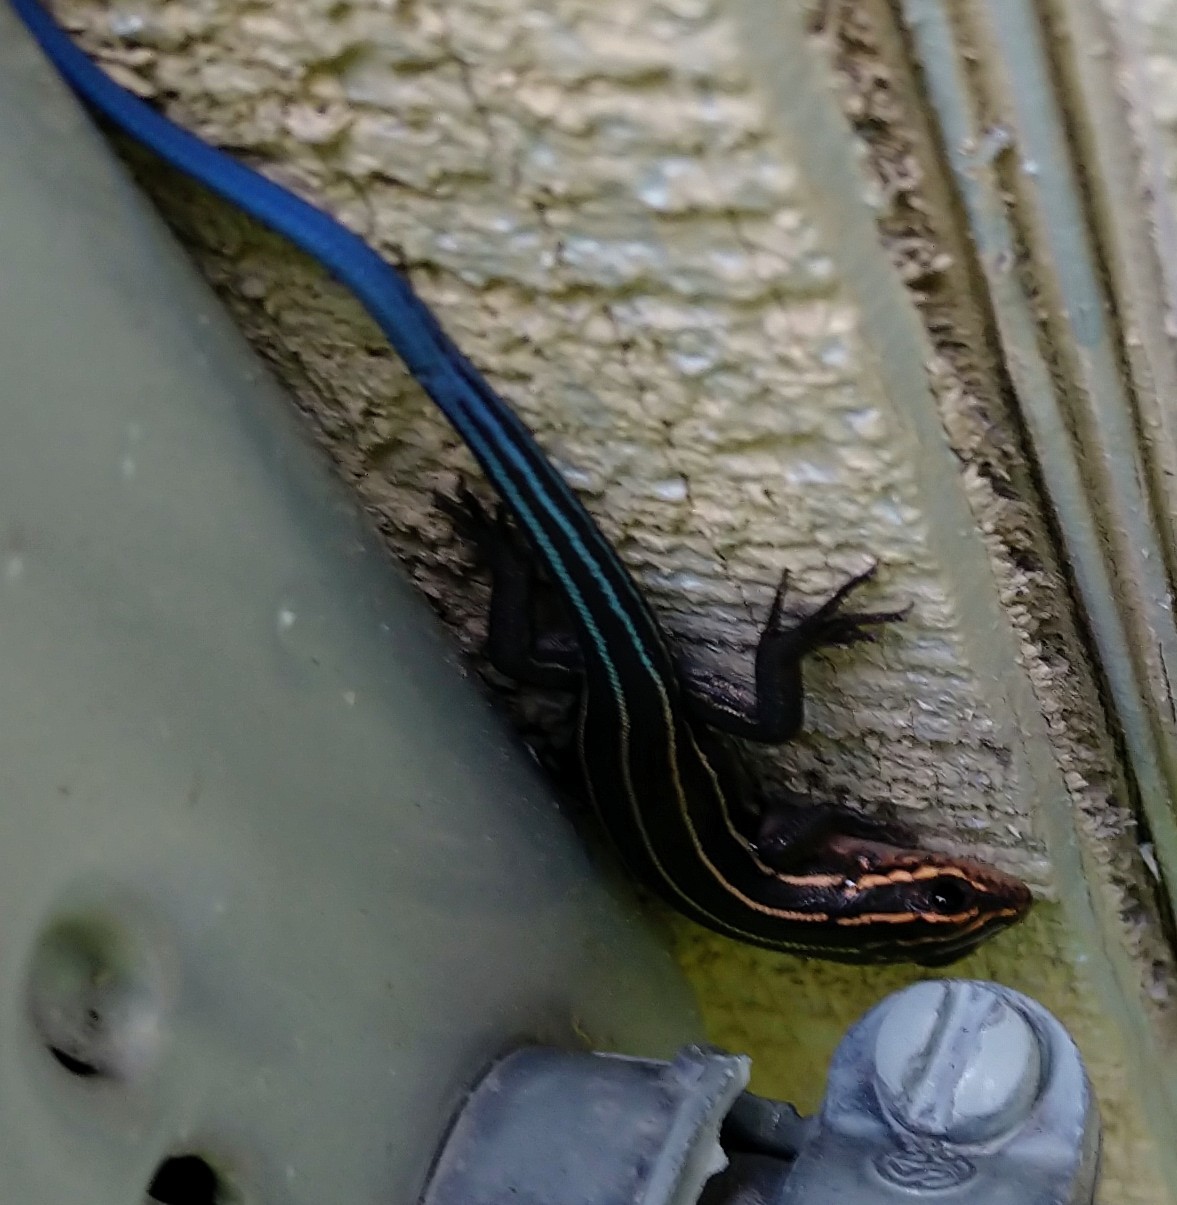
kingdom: Animalia
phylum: Chordata
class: Squamata
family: Scincidae
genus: Plestiodon
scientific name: Plestiodon laticeps
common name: Broadhead skink
